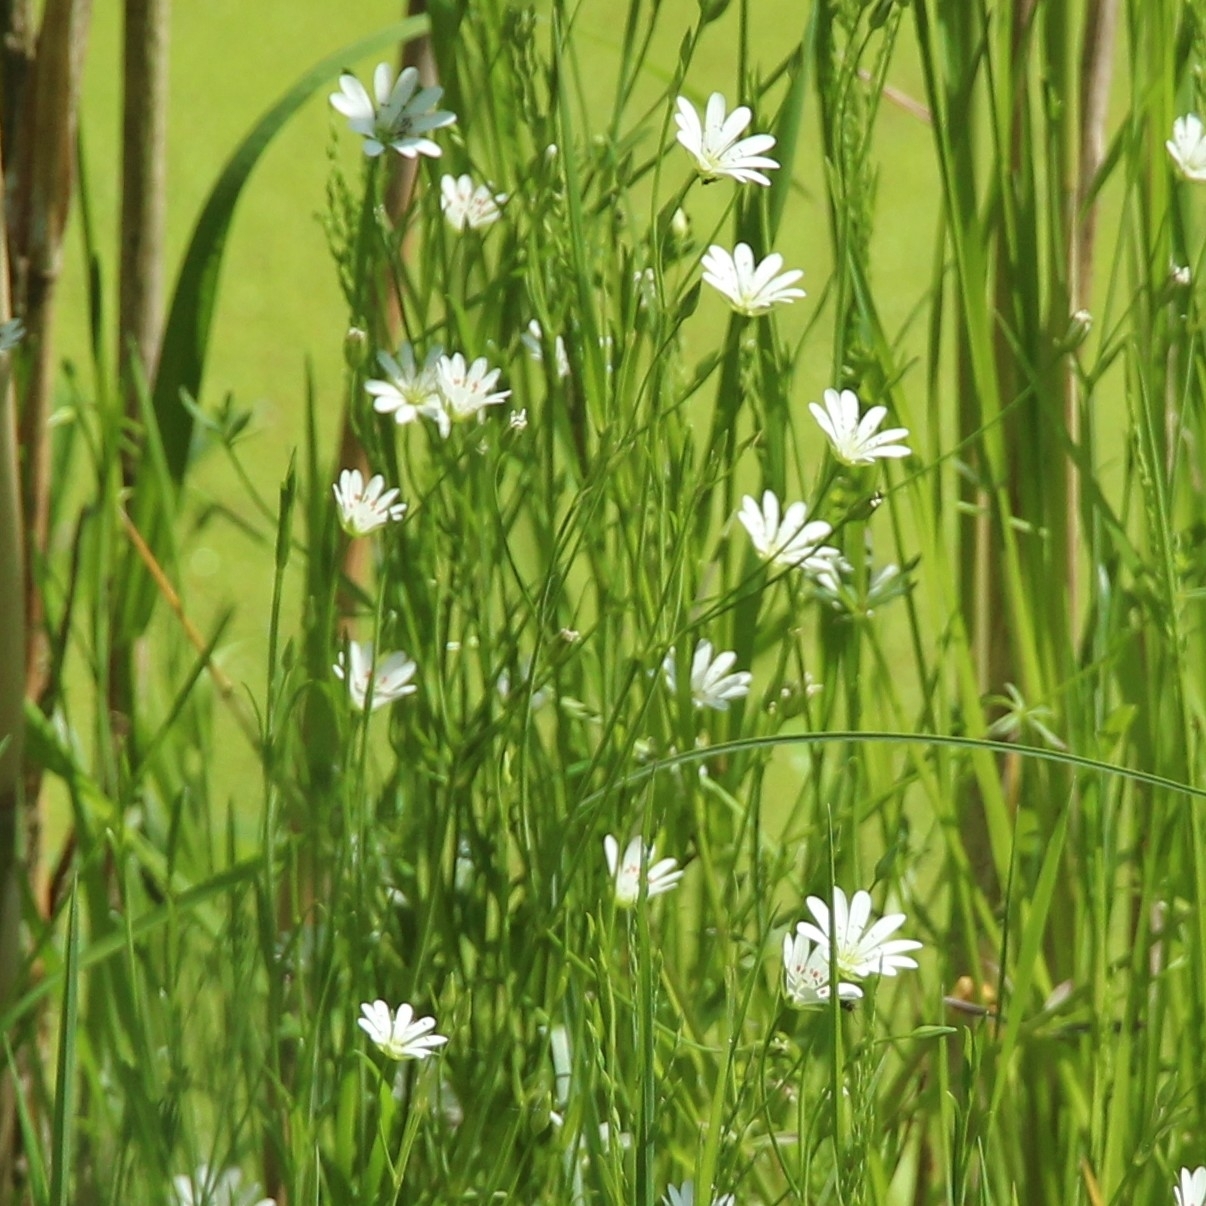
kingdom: Plantae
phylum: Tracheophyta
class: Magnoliopsida
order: Caryophyllales
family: Caryophyllaceae
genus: Stellaria
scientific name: Stellaria palustris
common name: Marsh stitchwort
